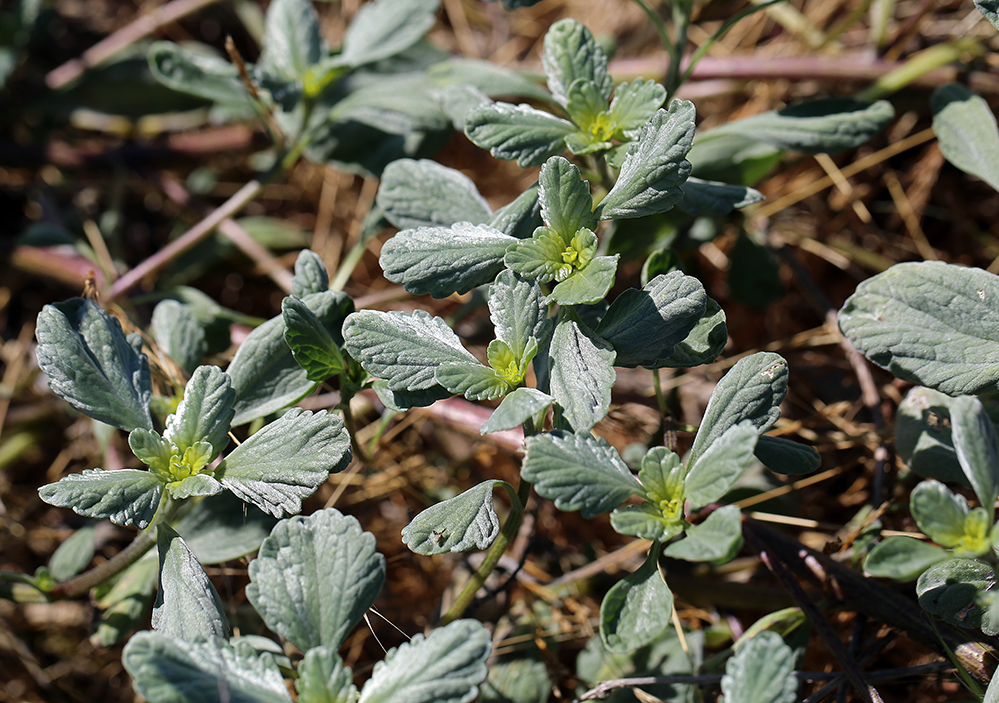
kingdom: Plantae
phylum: Tracheophyta
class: Magnoliopsida
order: Asterales
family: Asteraceae
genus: Ambrosia
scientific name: Ambrosia chamissonis
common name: Beachbur
